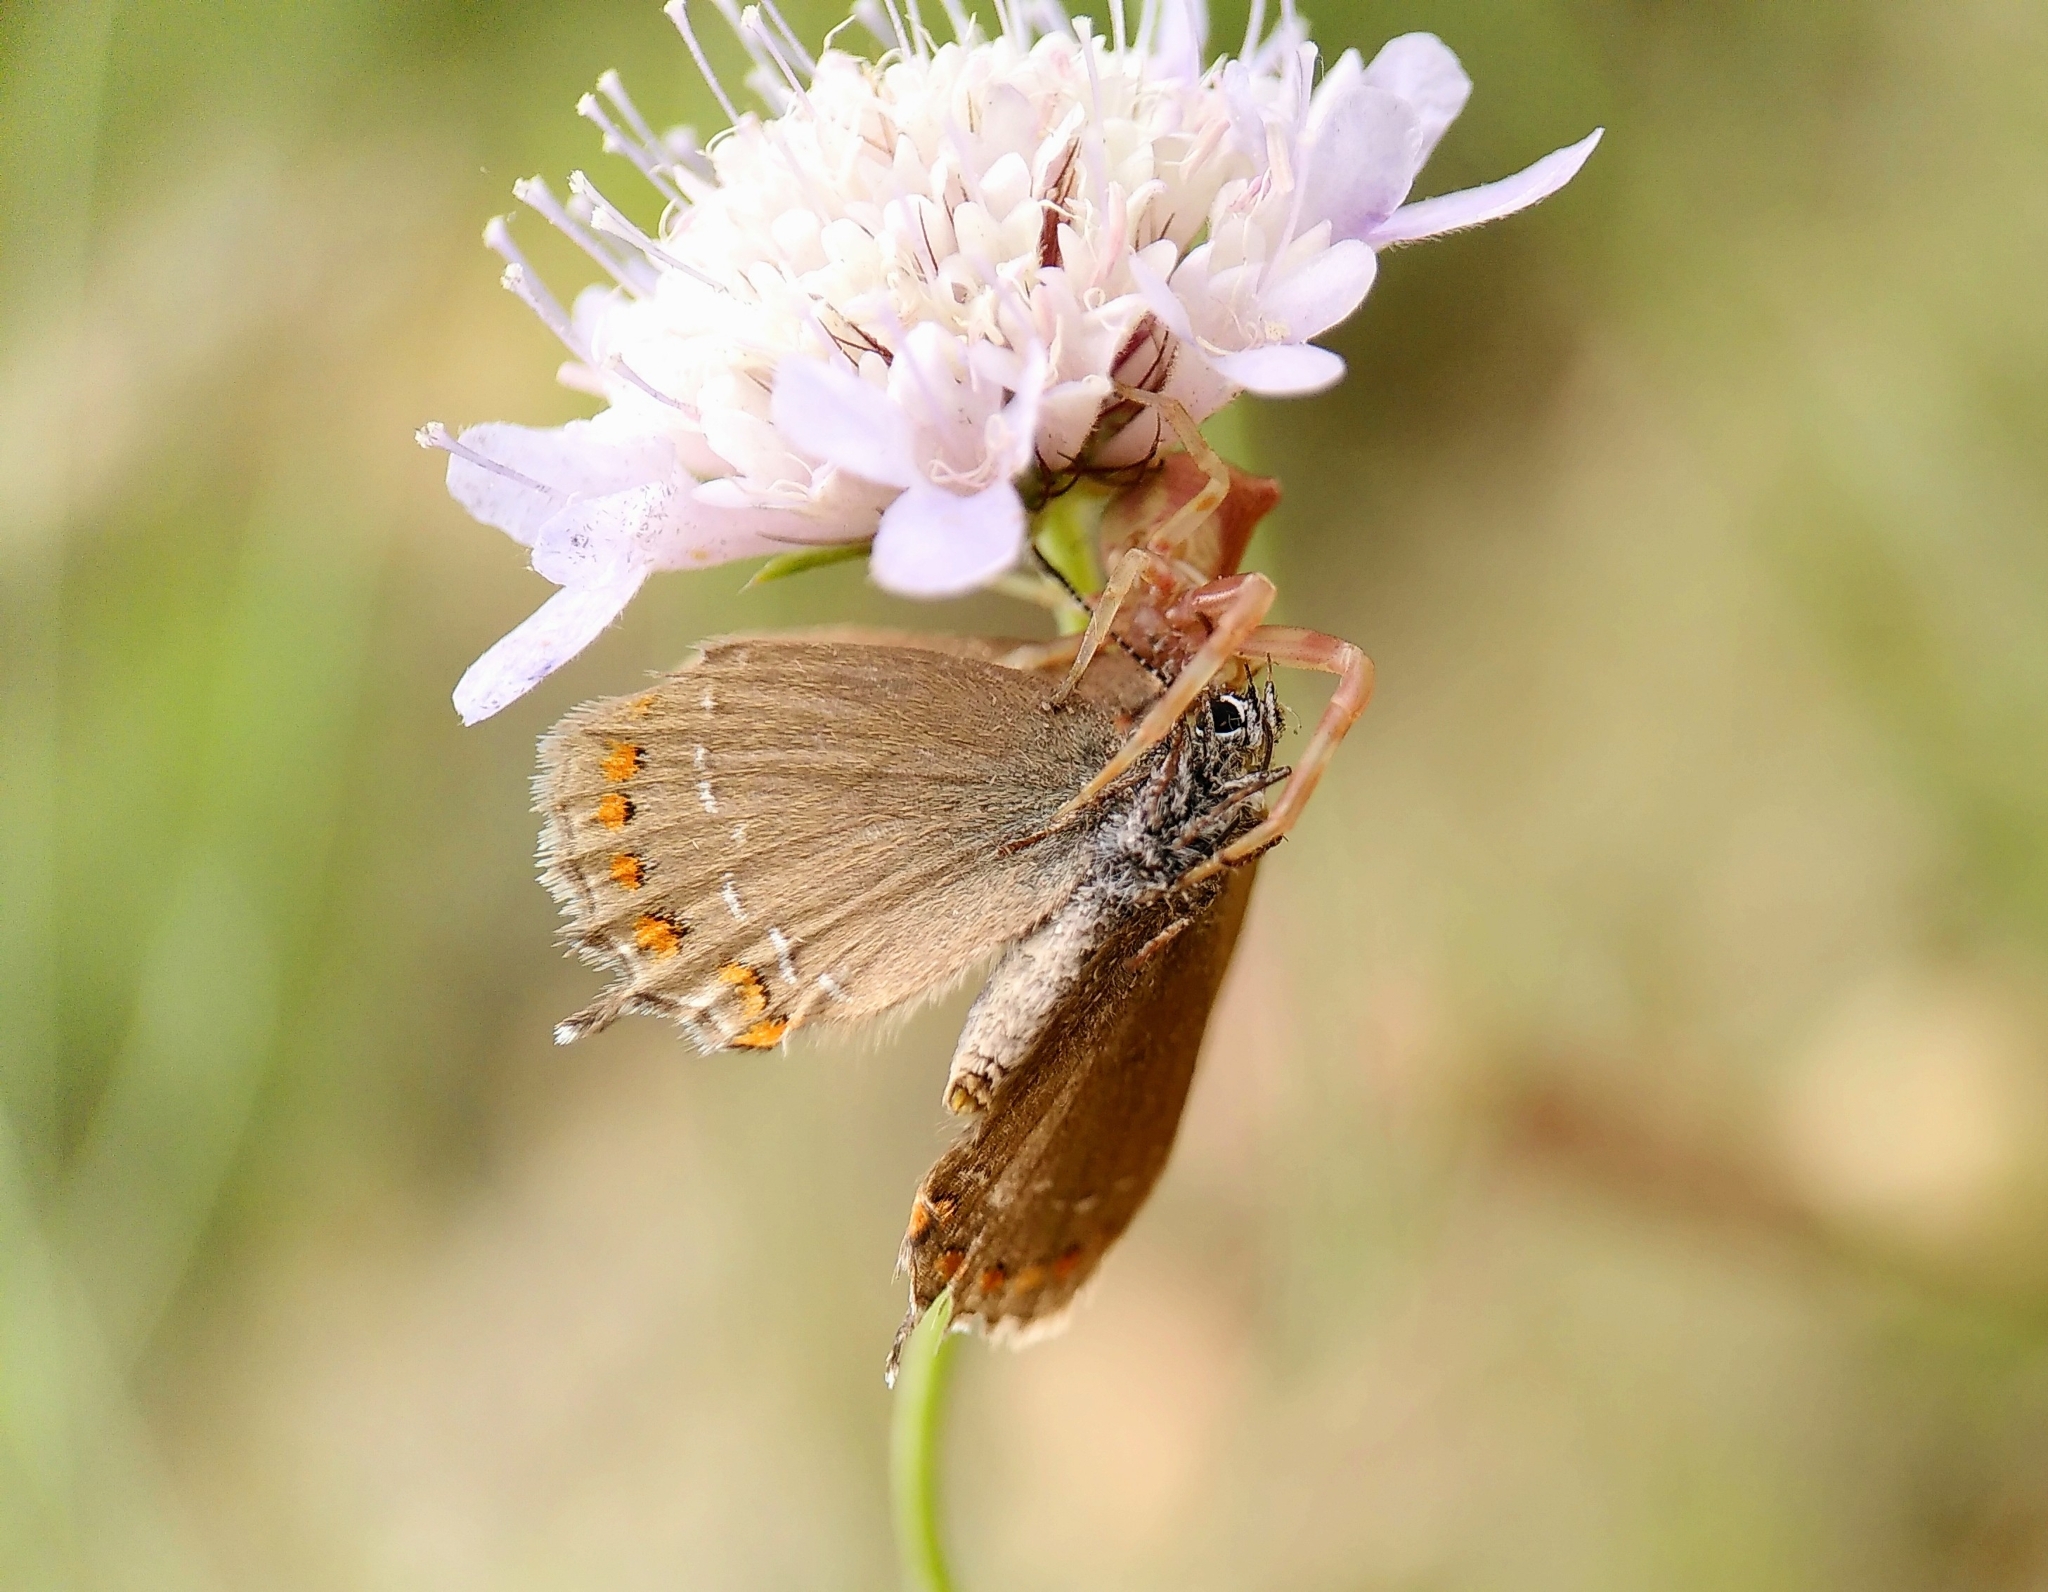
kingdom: Animalia
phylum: Arthropoda
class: Insecta
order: Lepidoptera
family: Lycaenidae
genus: Fixsenia
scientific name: Fixsenia esculi
